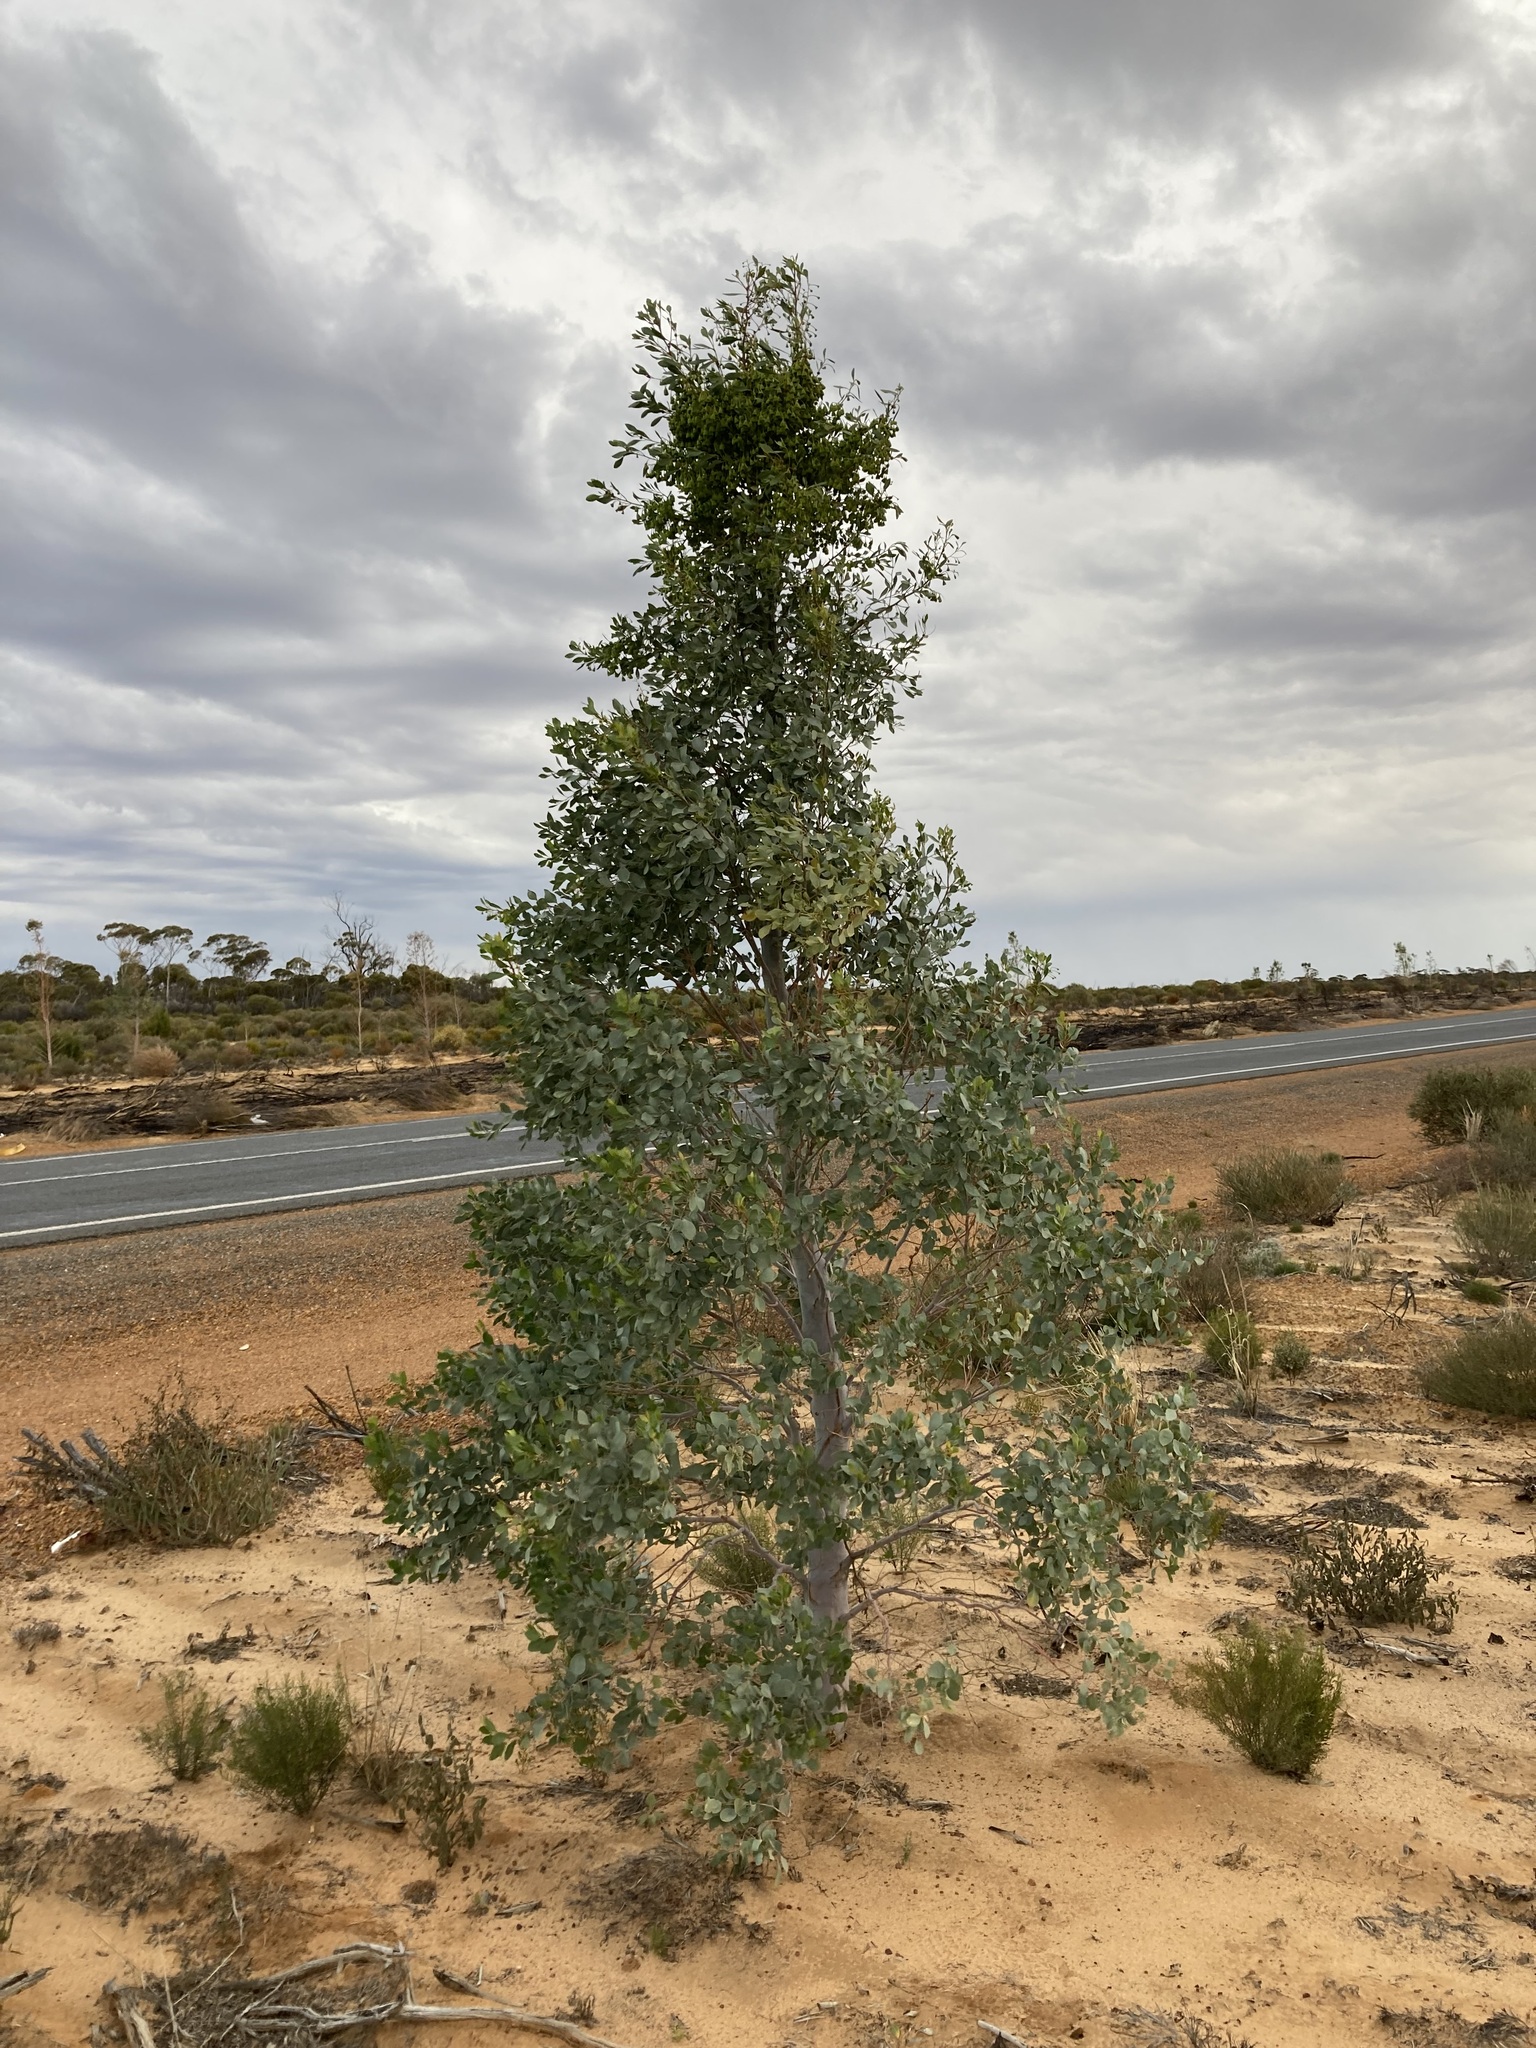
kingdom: Plantae
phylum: Tracheophyta
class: Magnoliopsida
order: Brassicales
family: Gyrostemonaceae
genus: Codonocarpus
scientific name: Codonocarpus cotinifolius
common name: Mustardtree
